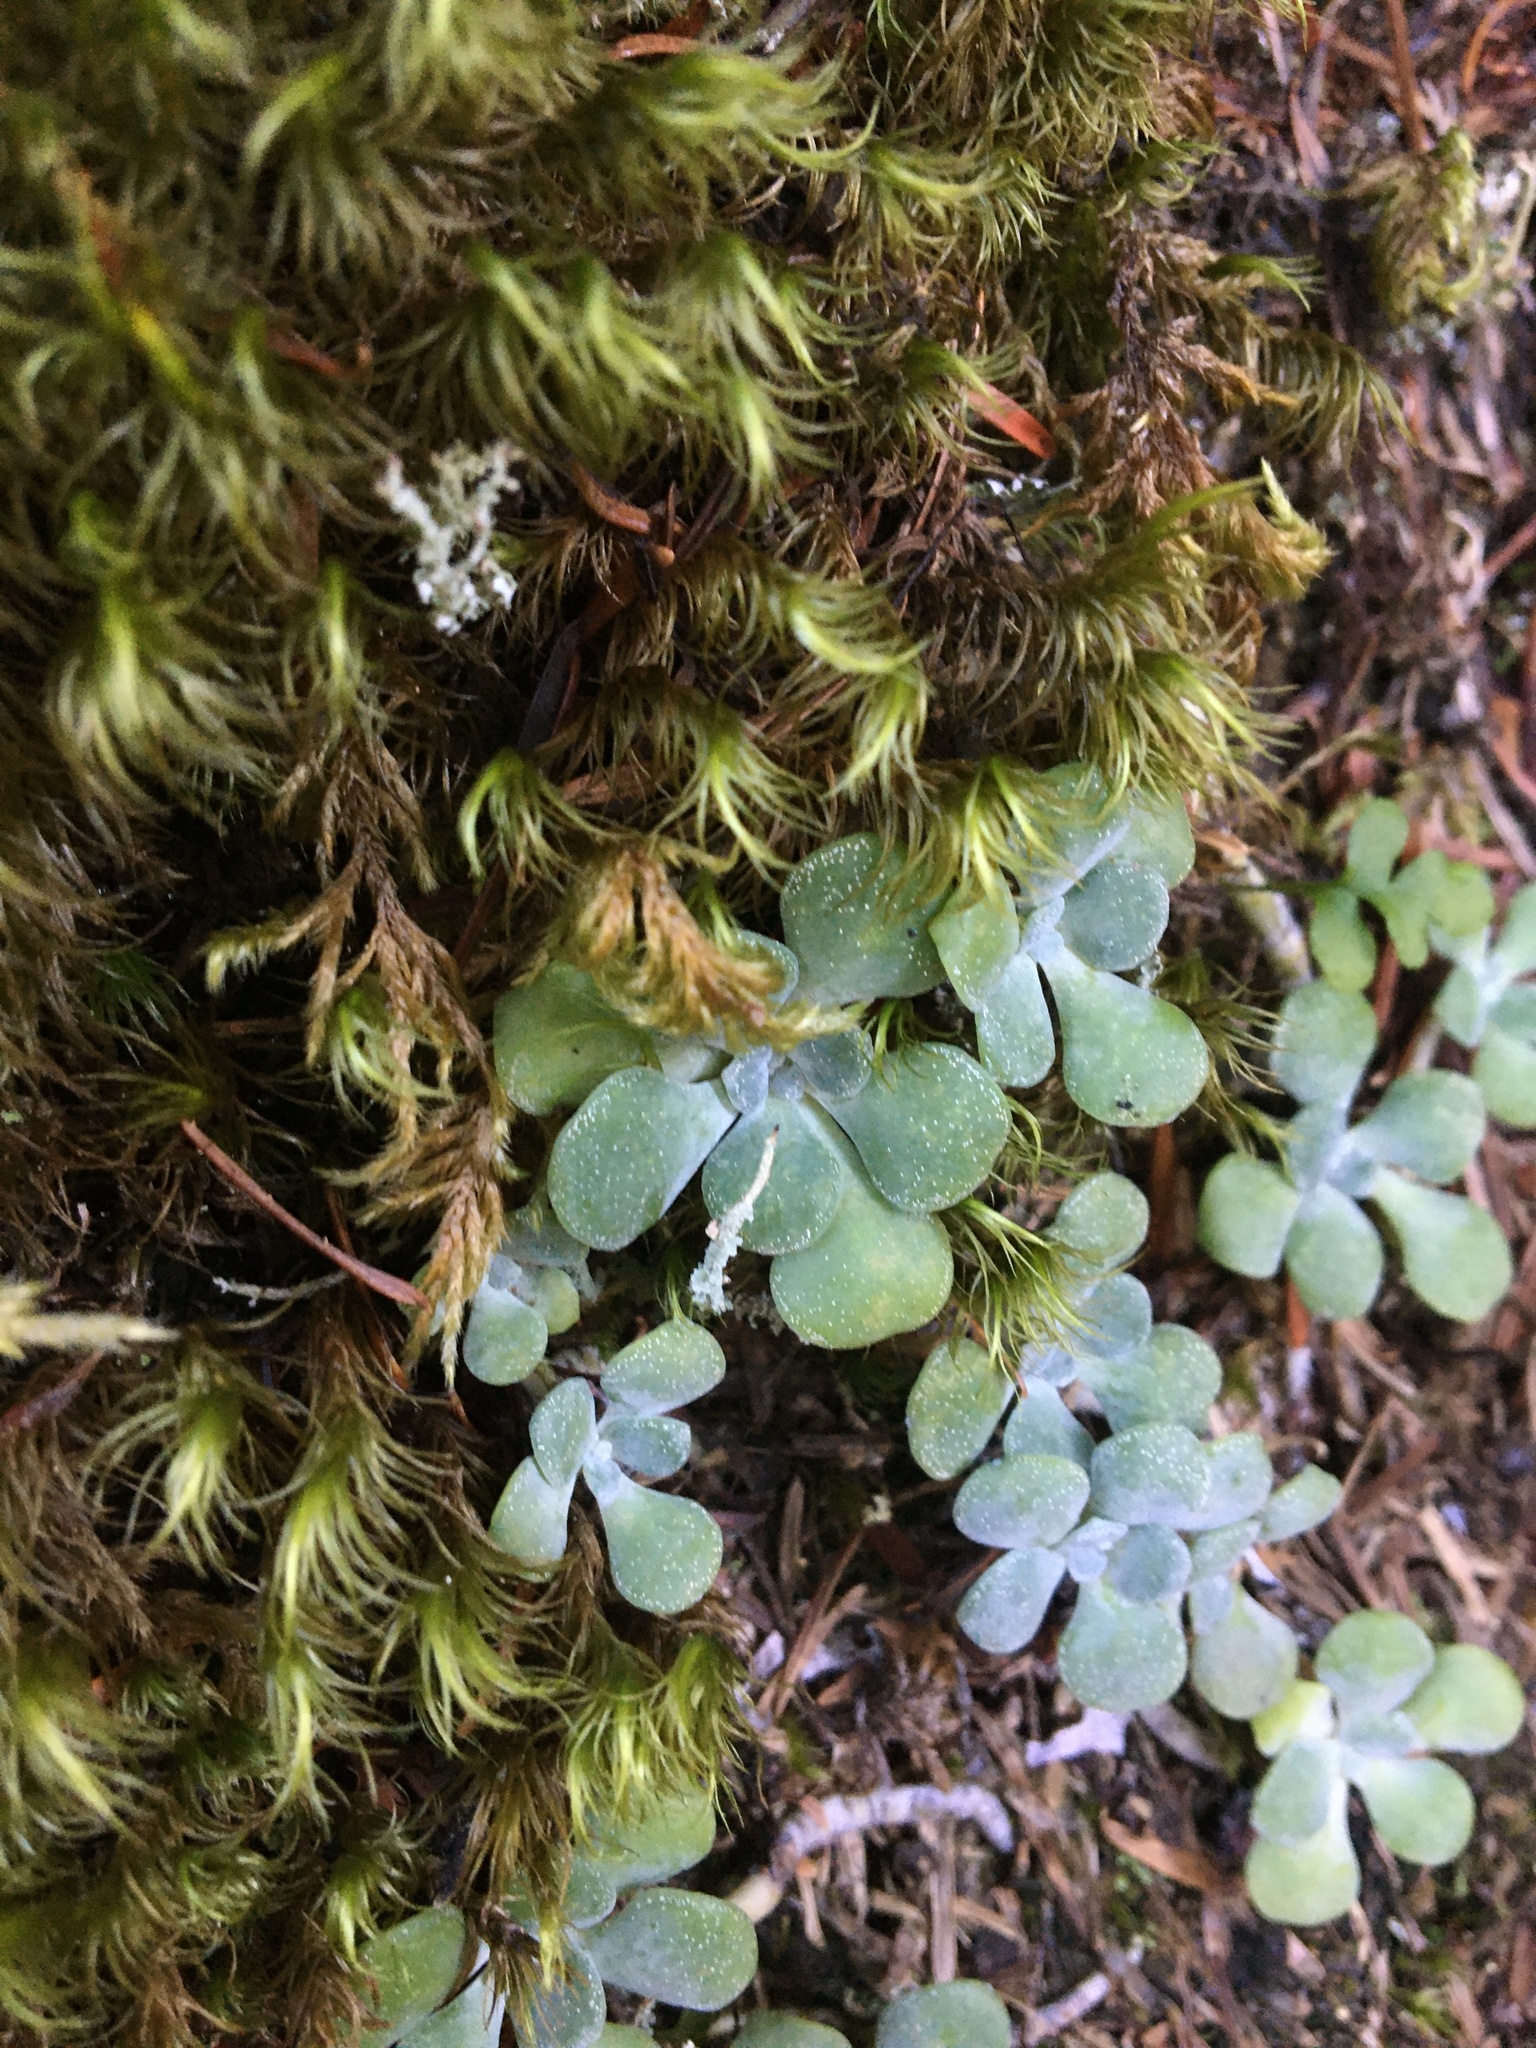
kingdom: Plantae
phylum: Tracheophyta
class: Magnoliopsida
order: Saxifragales
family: Crassulaceae
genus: Sedum
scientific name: Sedum spathulifolium
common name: Colorado stonecrop
